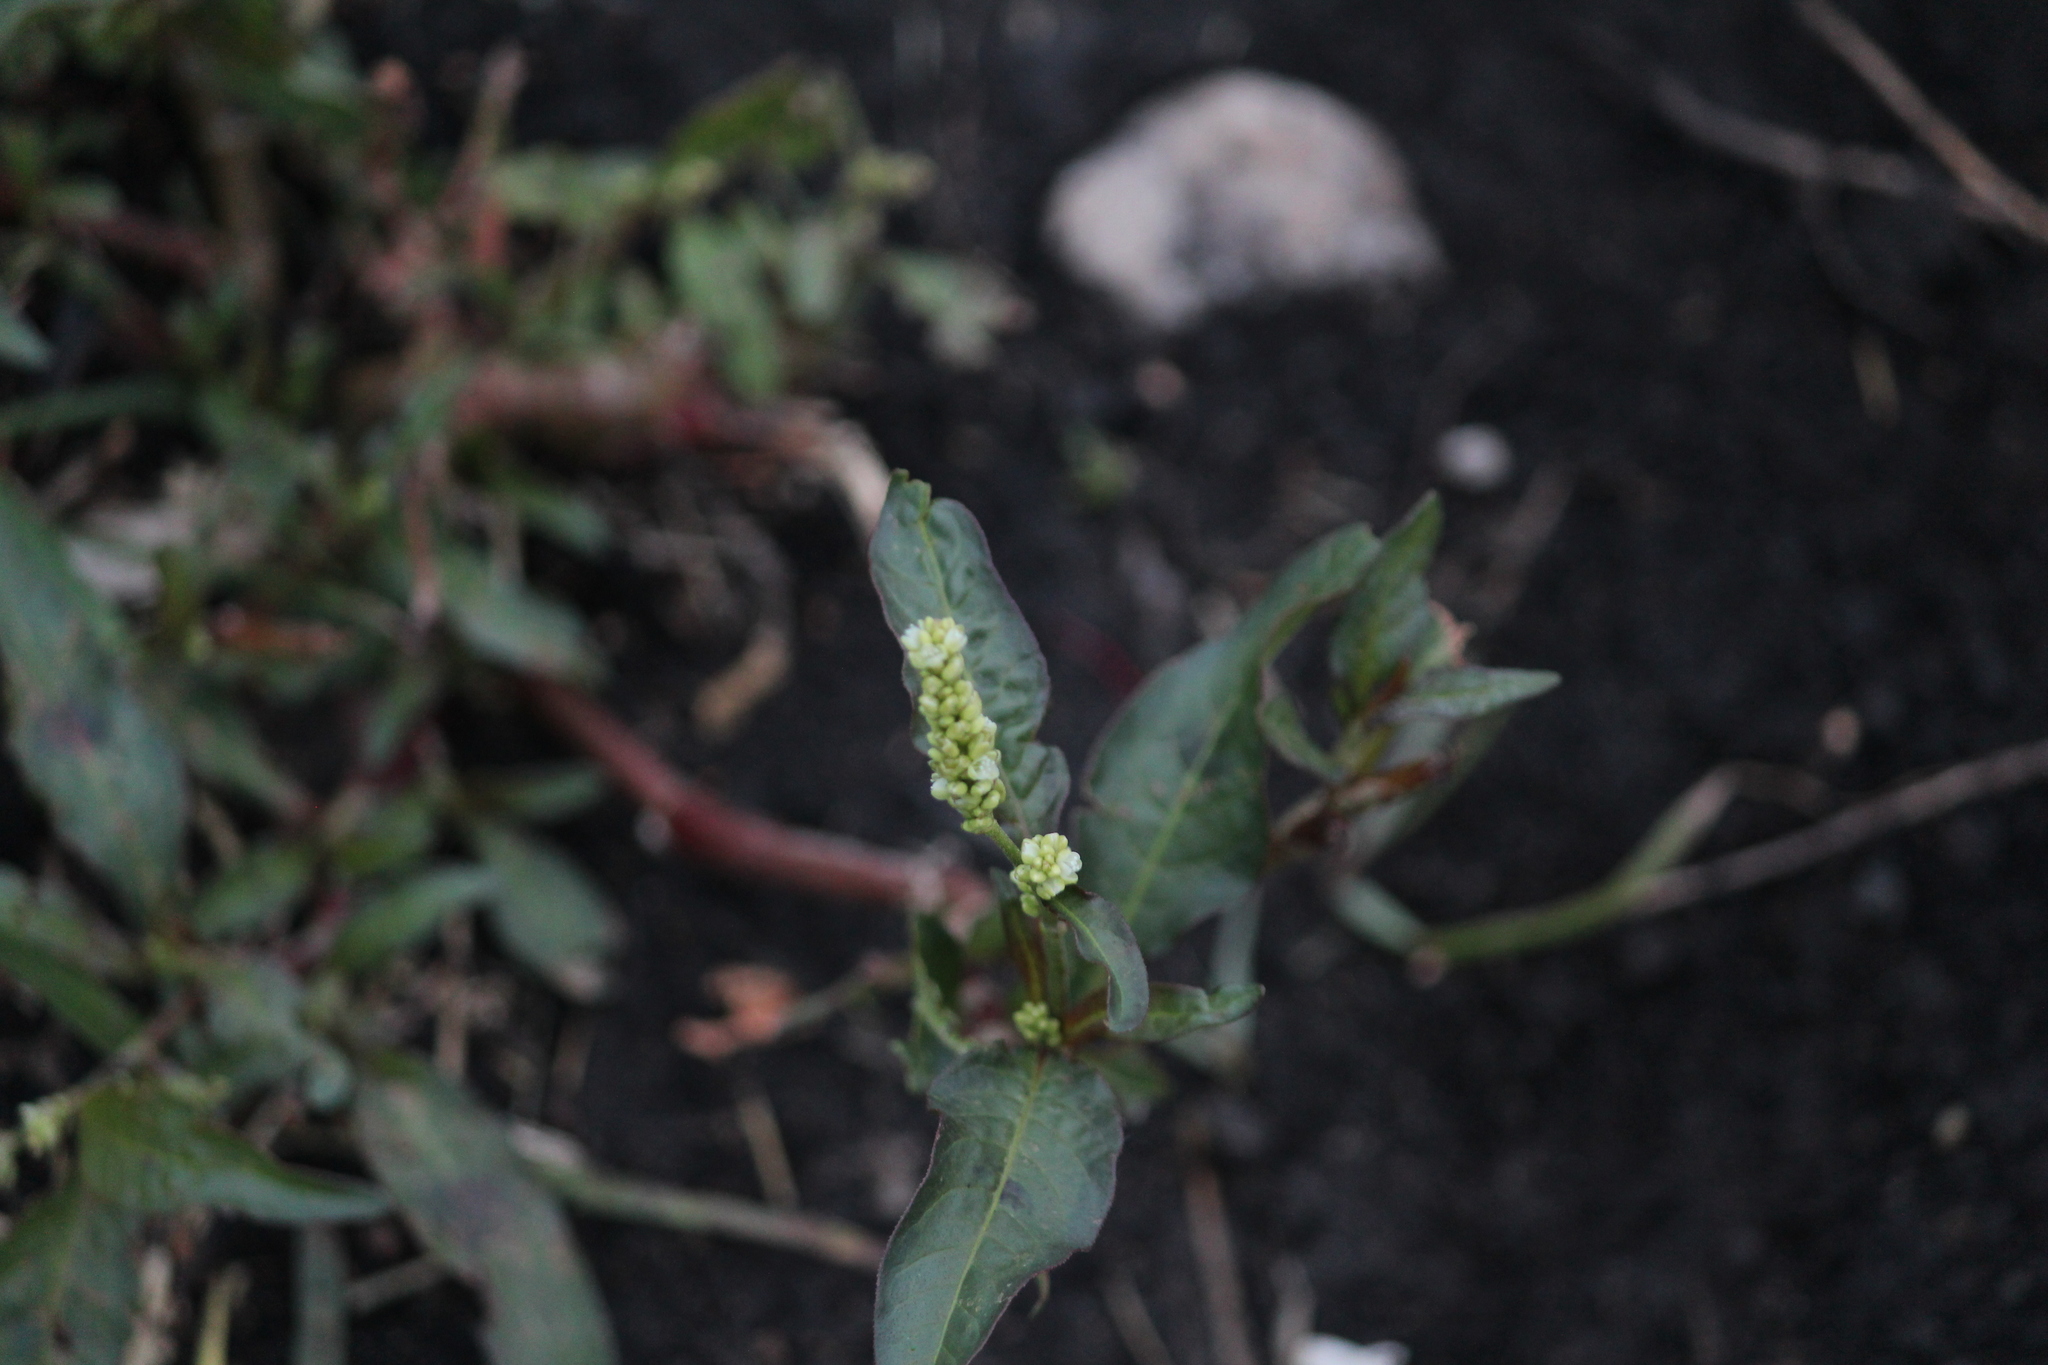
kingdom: Plantae
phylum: Tracheophyta
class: Magnoliopsida
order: Caryophyllales
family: Polygonaceae
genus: Persicaria
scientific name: Persicaria lapathifolia
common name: Curlytop knotweed
